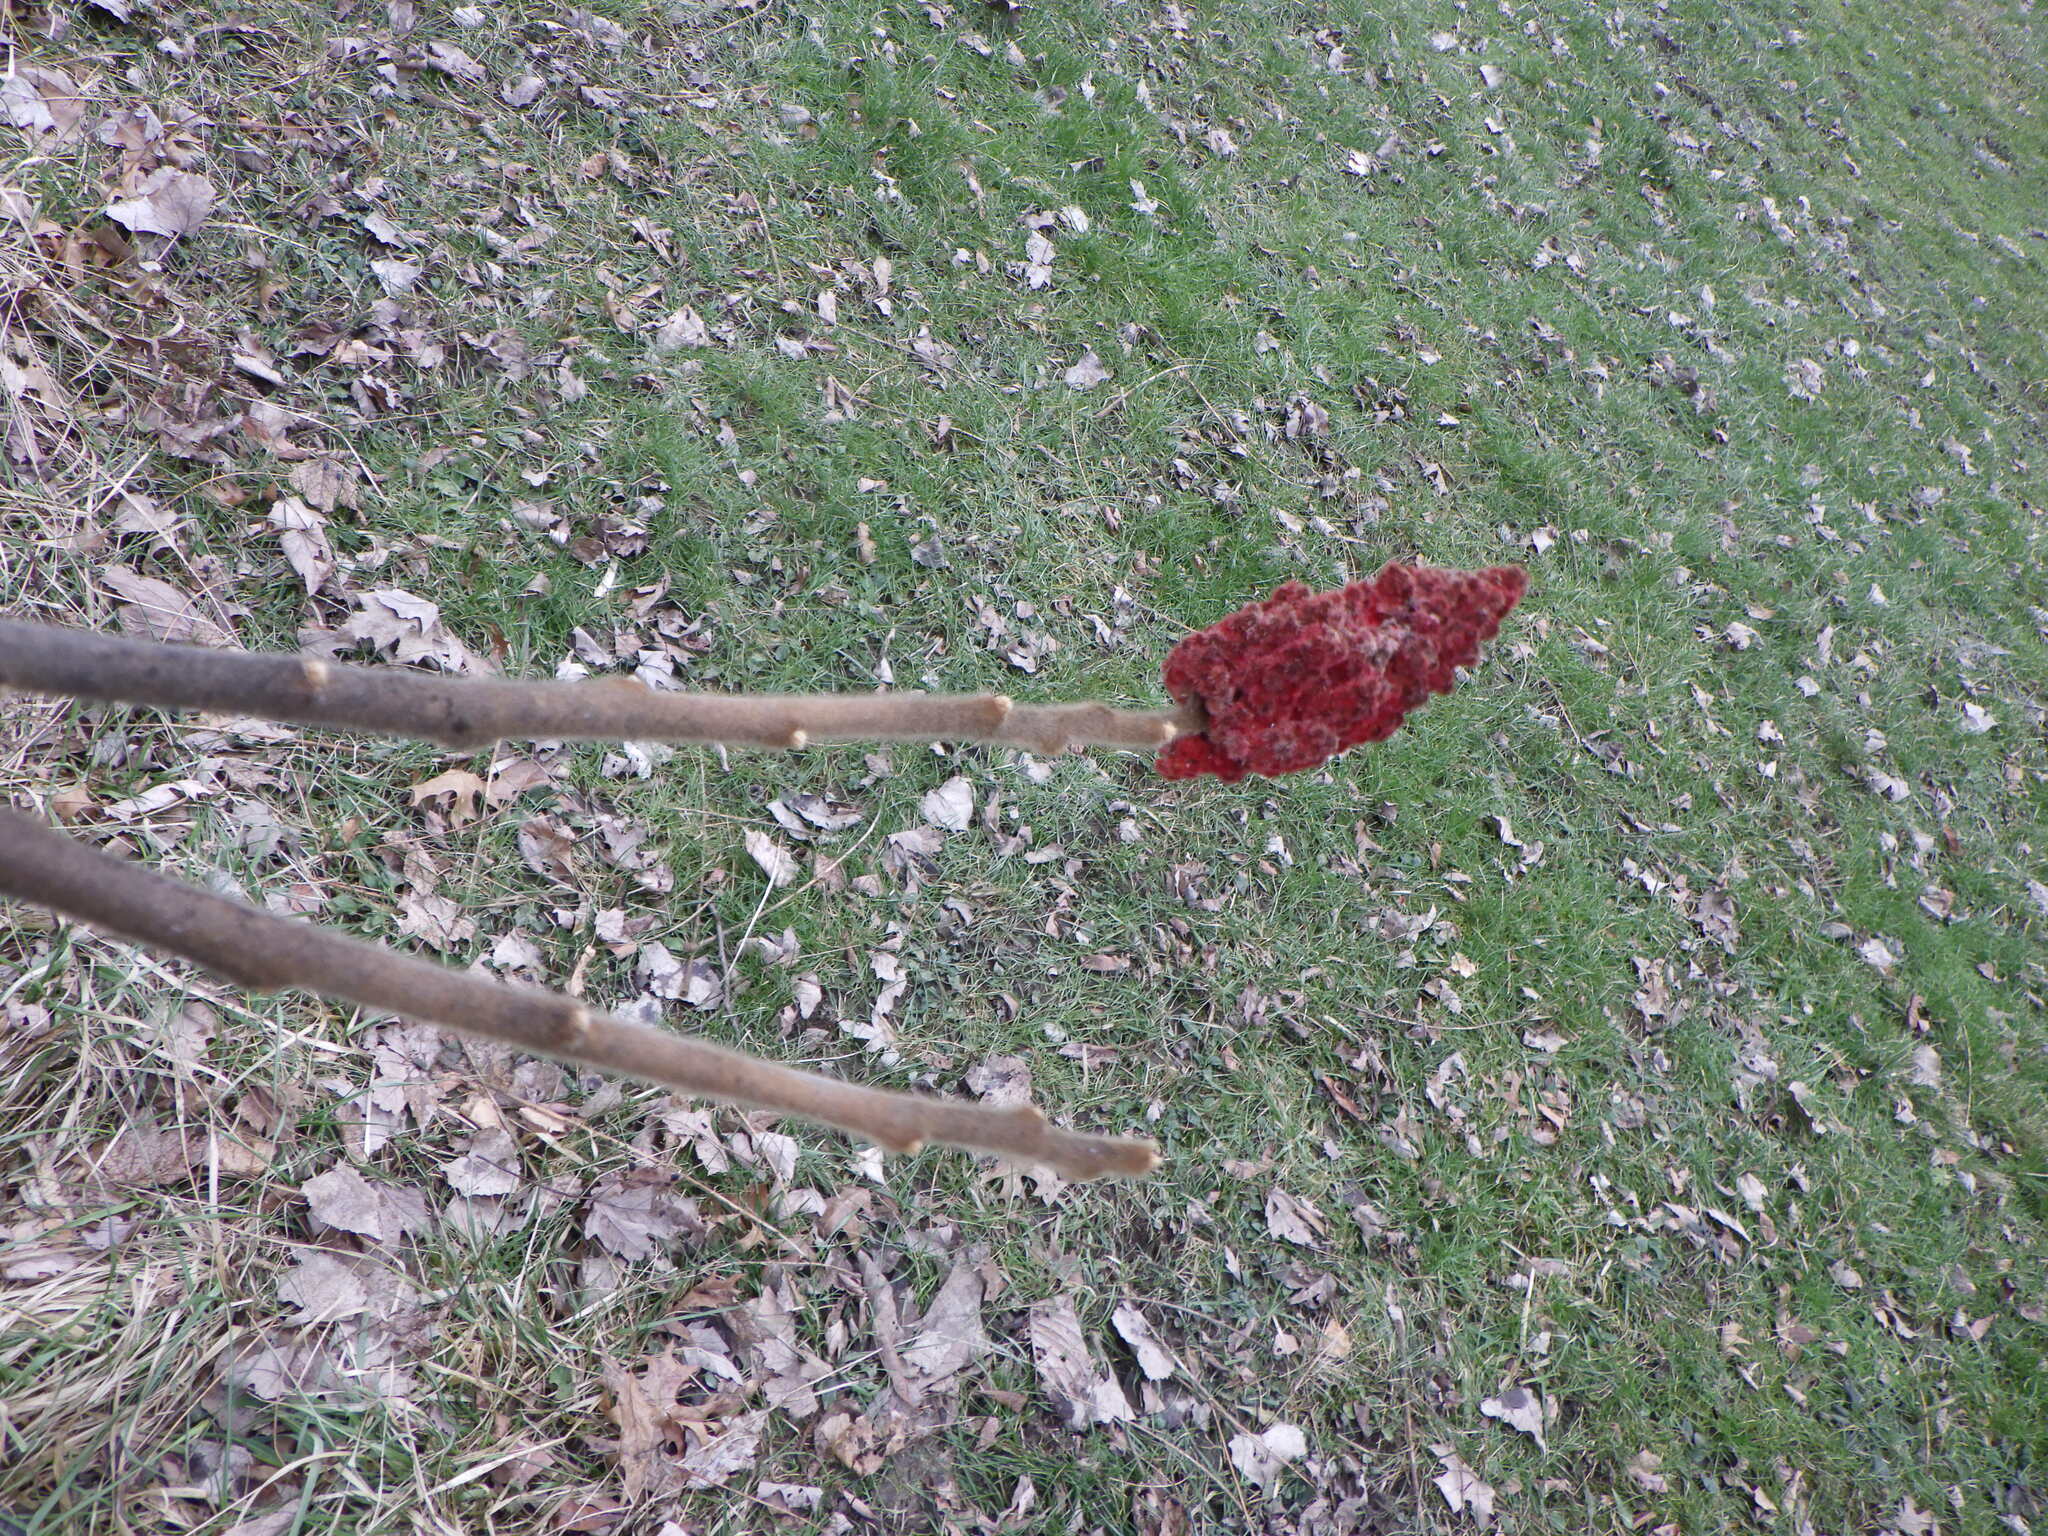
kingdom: Plantae
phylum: Tracheophyta
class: Magnoliopsida
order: Sapindales
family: Anacardiaceae
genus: Rhus
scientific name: Rhus typhina
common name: Staghorn sumac
